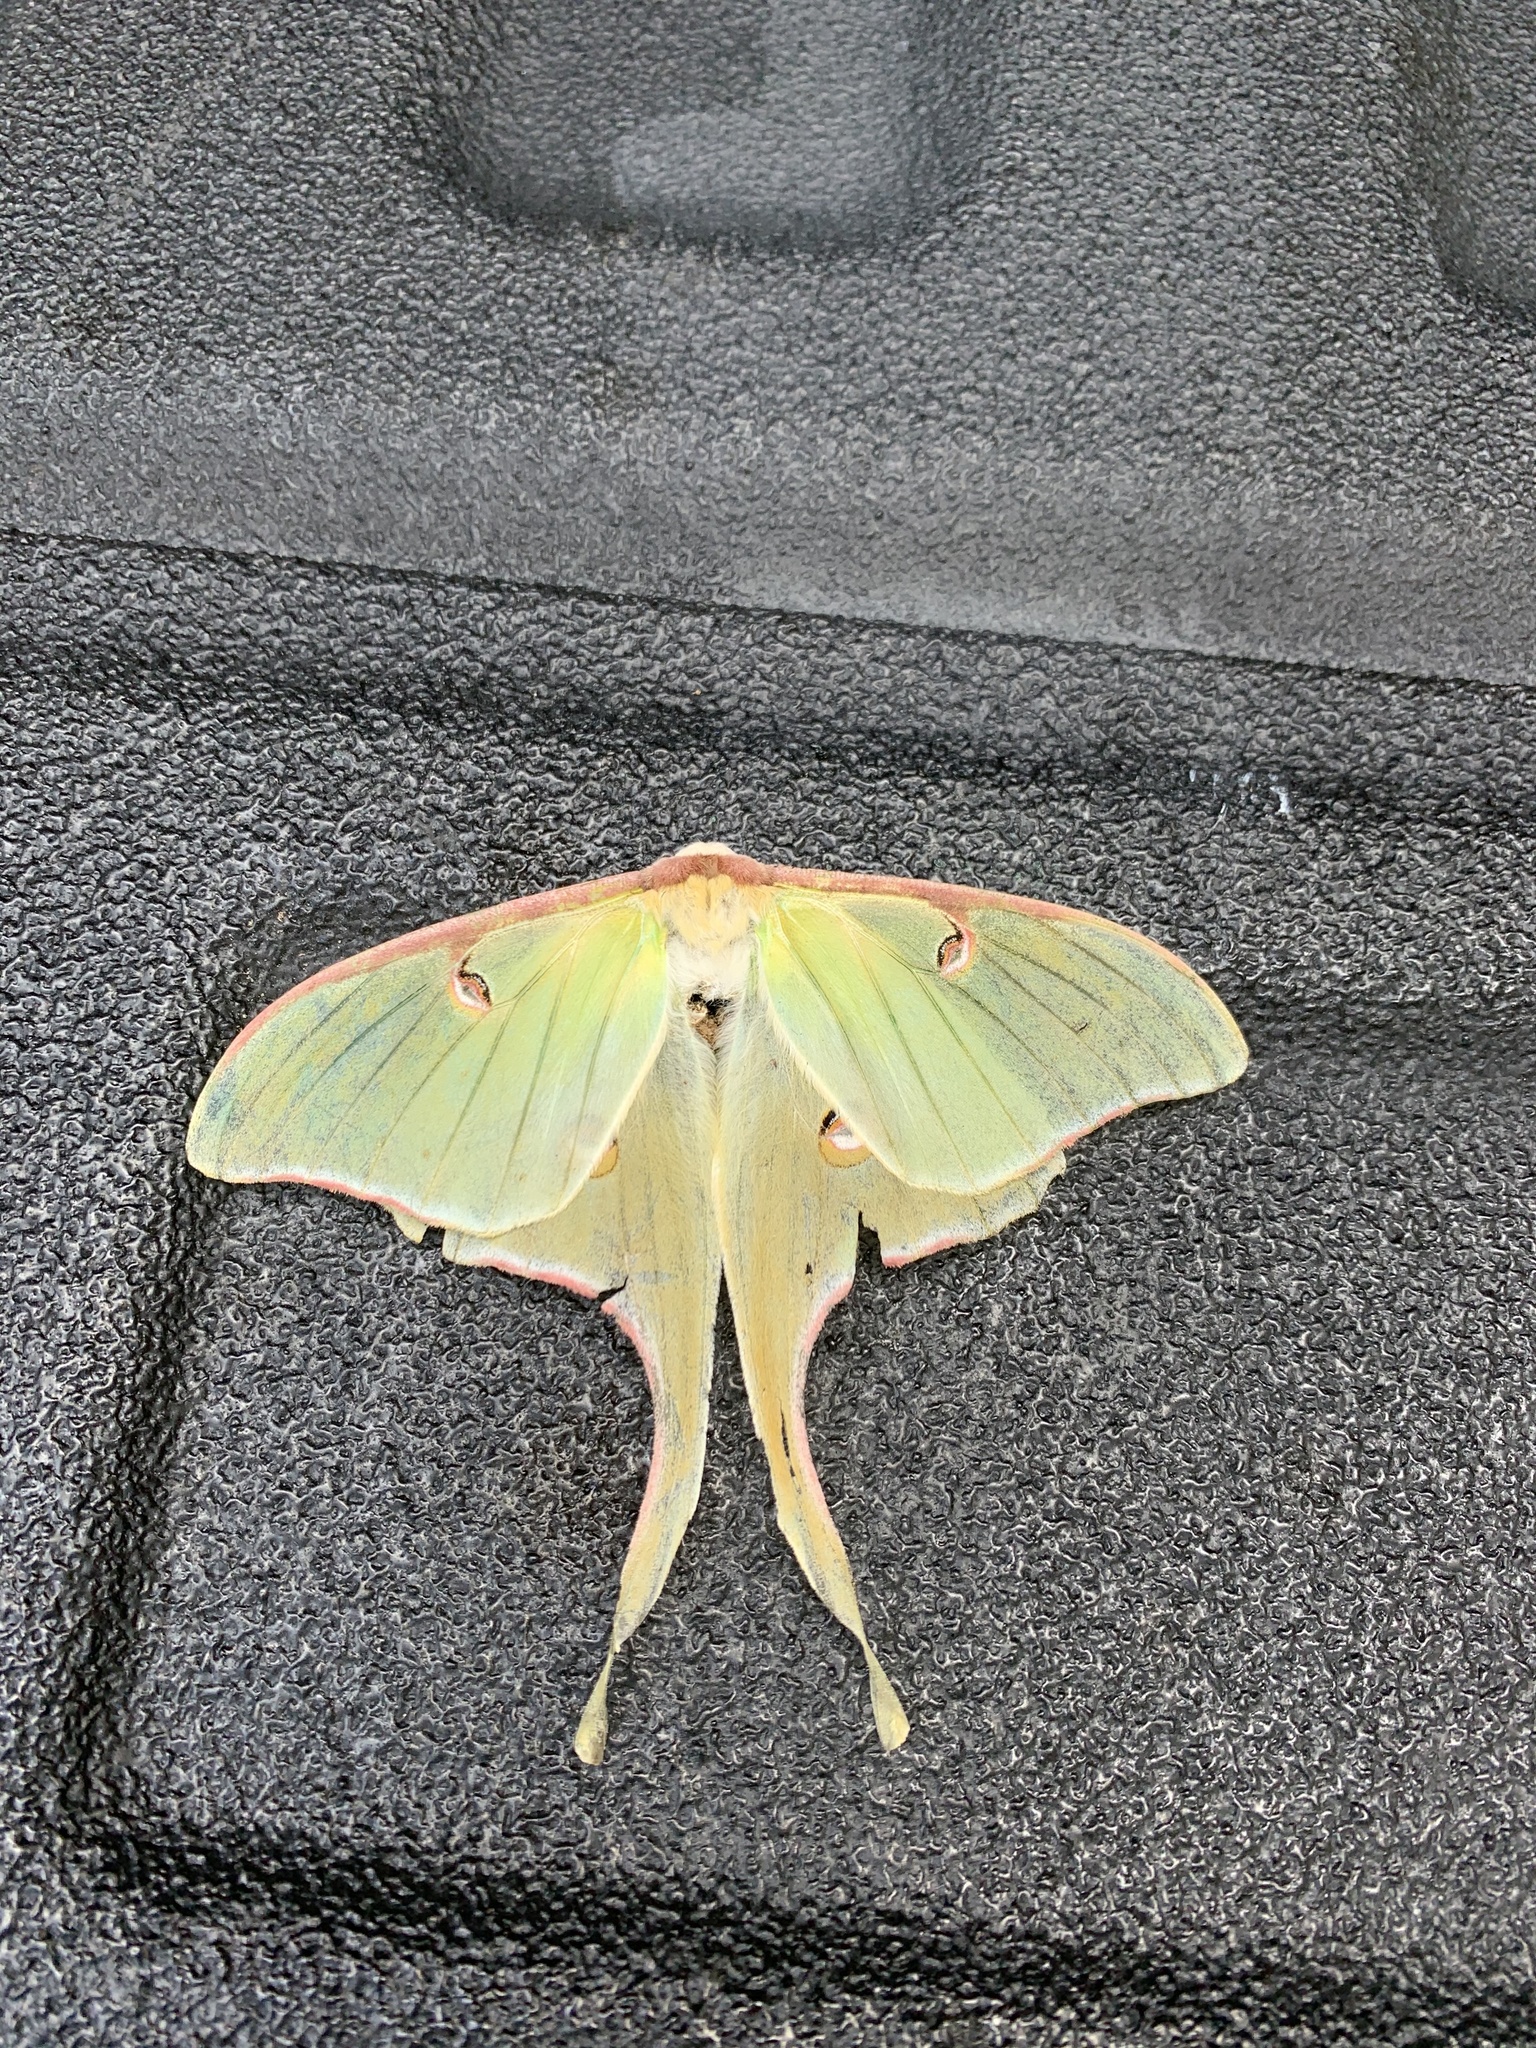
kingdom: Animalia
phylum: Arthropoda
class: Insecta
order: Lepidoptera
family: Saturniidae
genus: Actias
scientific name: Actias luna
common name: Luna moth
